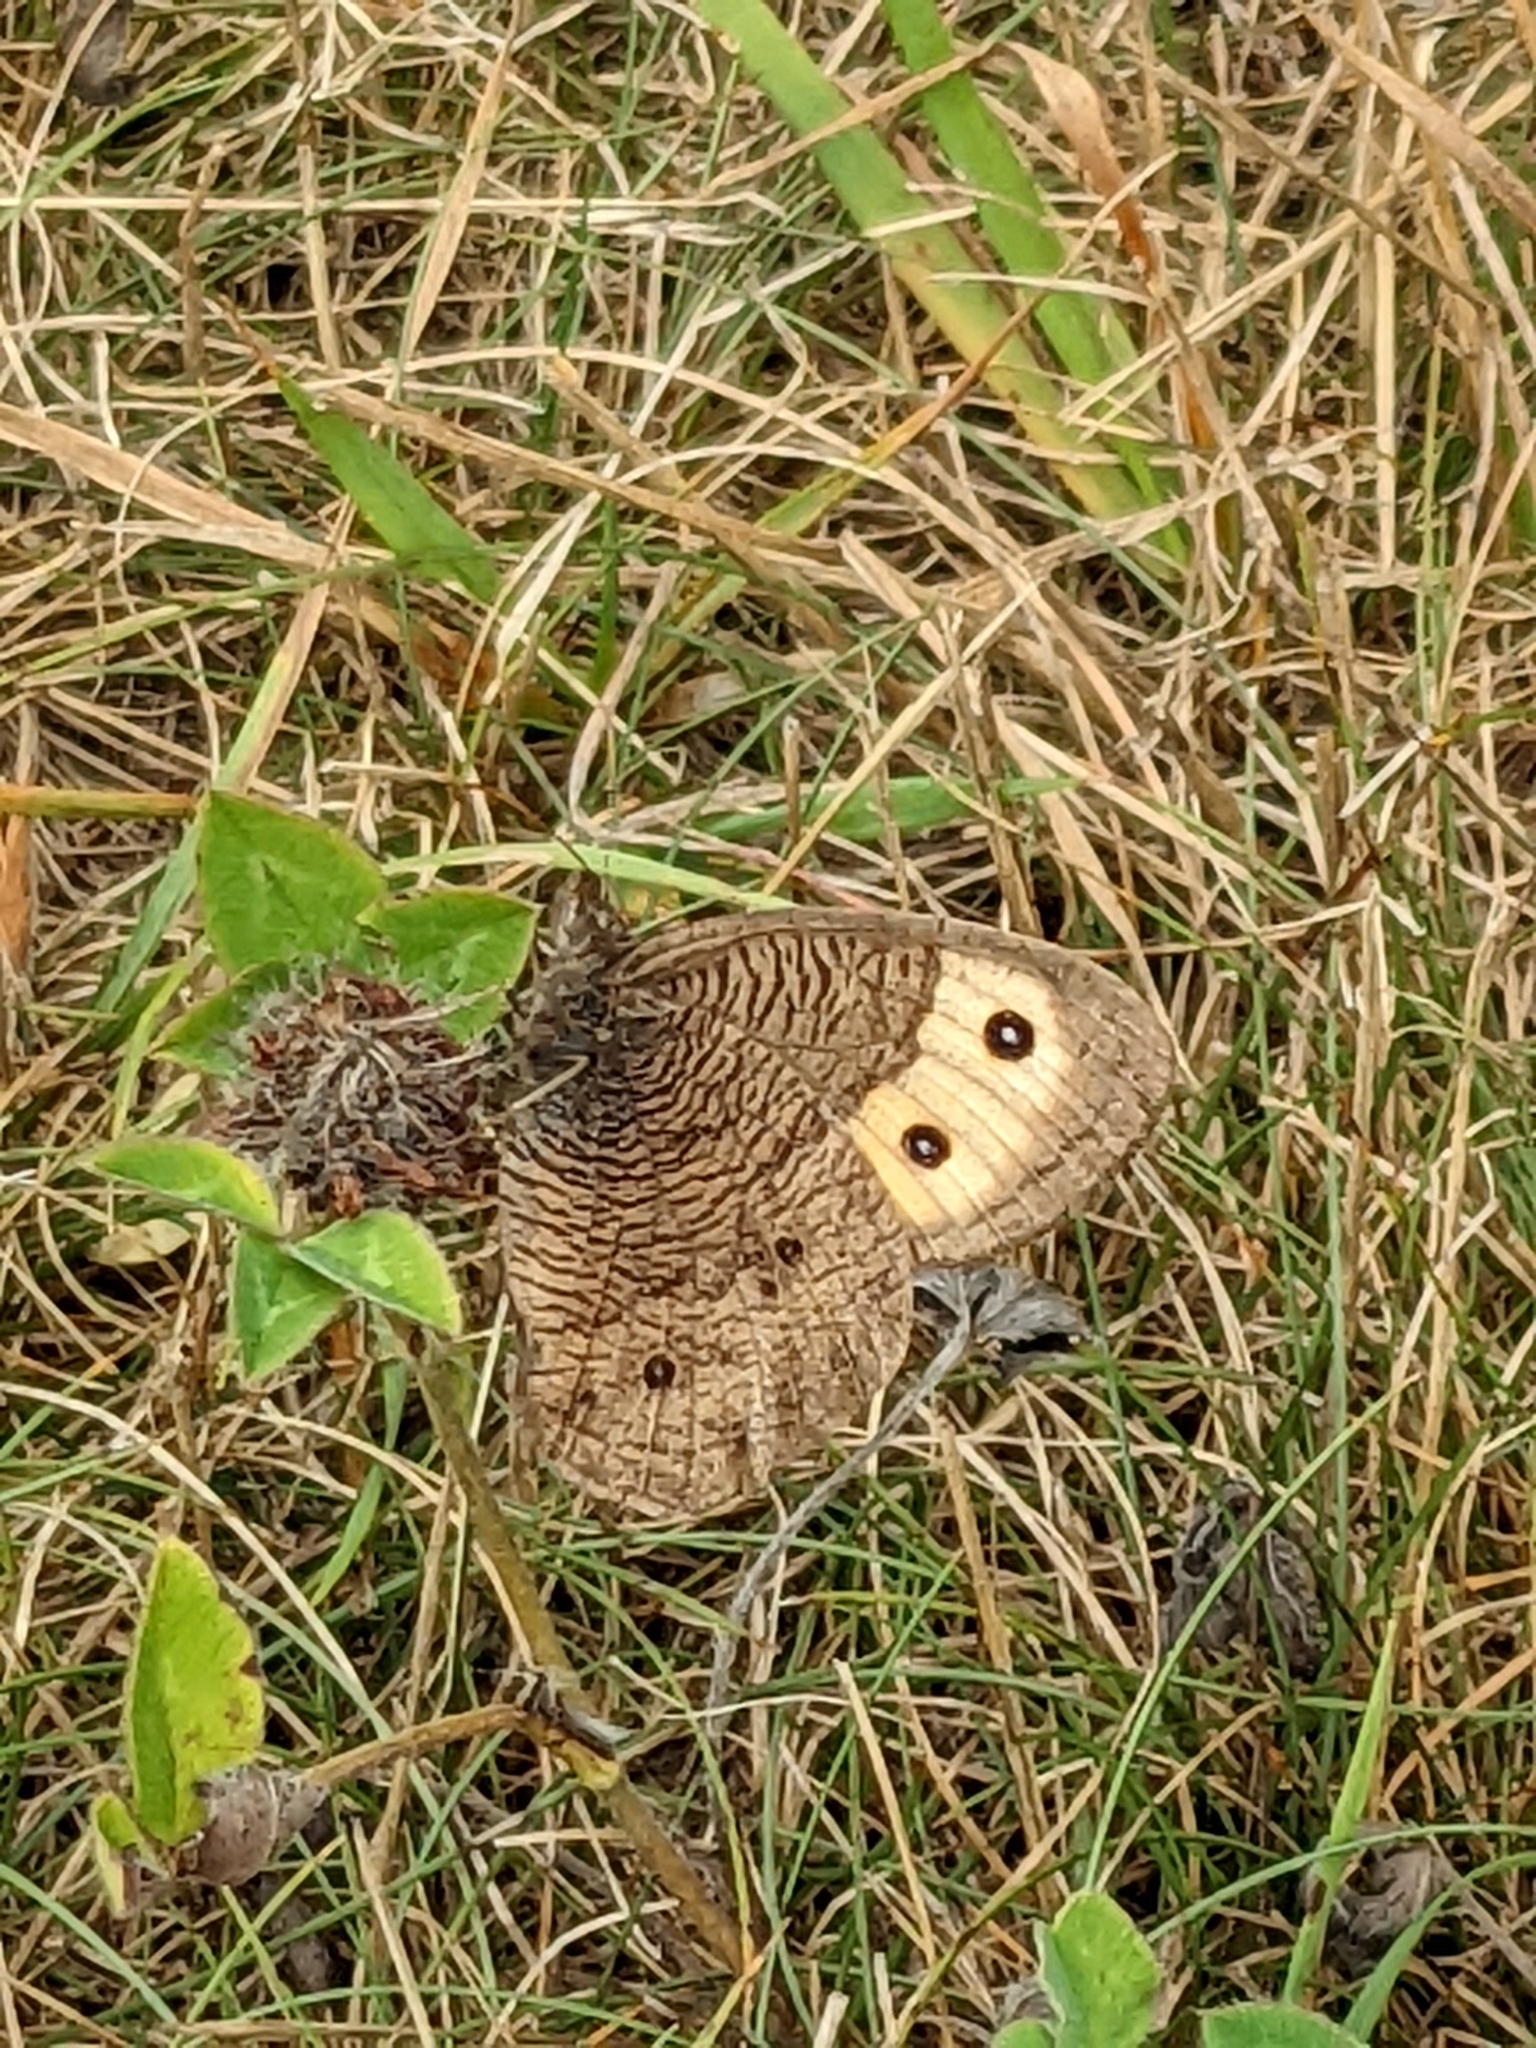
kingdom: Animalia
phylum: Arthropoda
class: Insecta
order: Lepidoptera
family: Nymphalidae
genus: Cercyonis
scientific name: Cercyonis pegala
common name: Common wood-nymph
